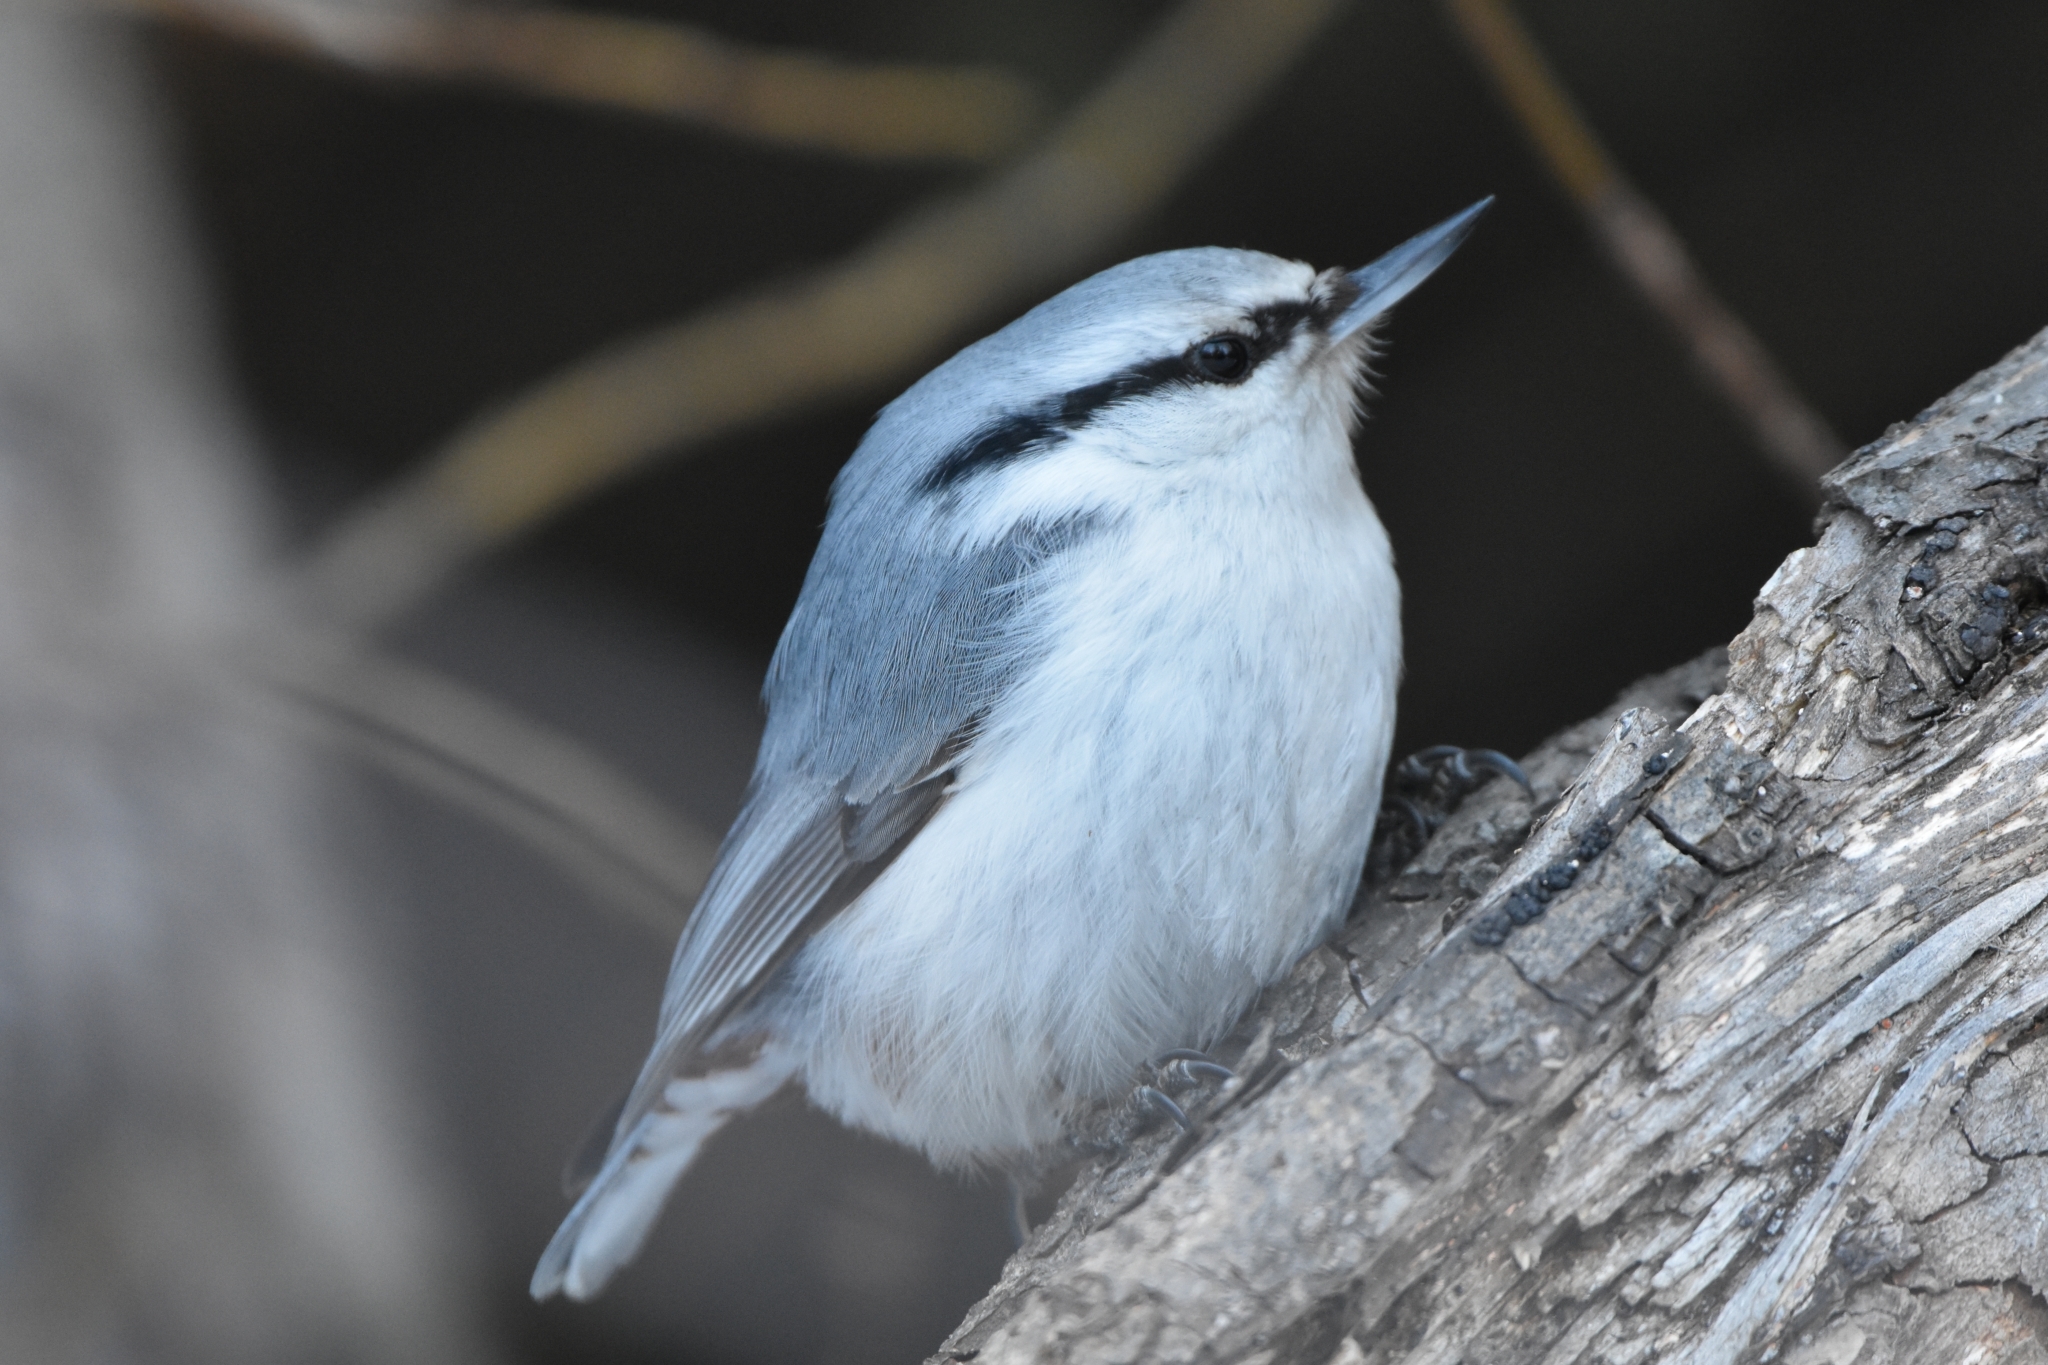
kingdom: Animalia
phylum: Chordata
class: Aves
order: Passeriformes
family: Sittidae
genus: Sitta
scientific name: Sitta europaea
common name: Eurasian nuthatch
